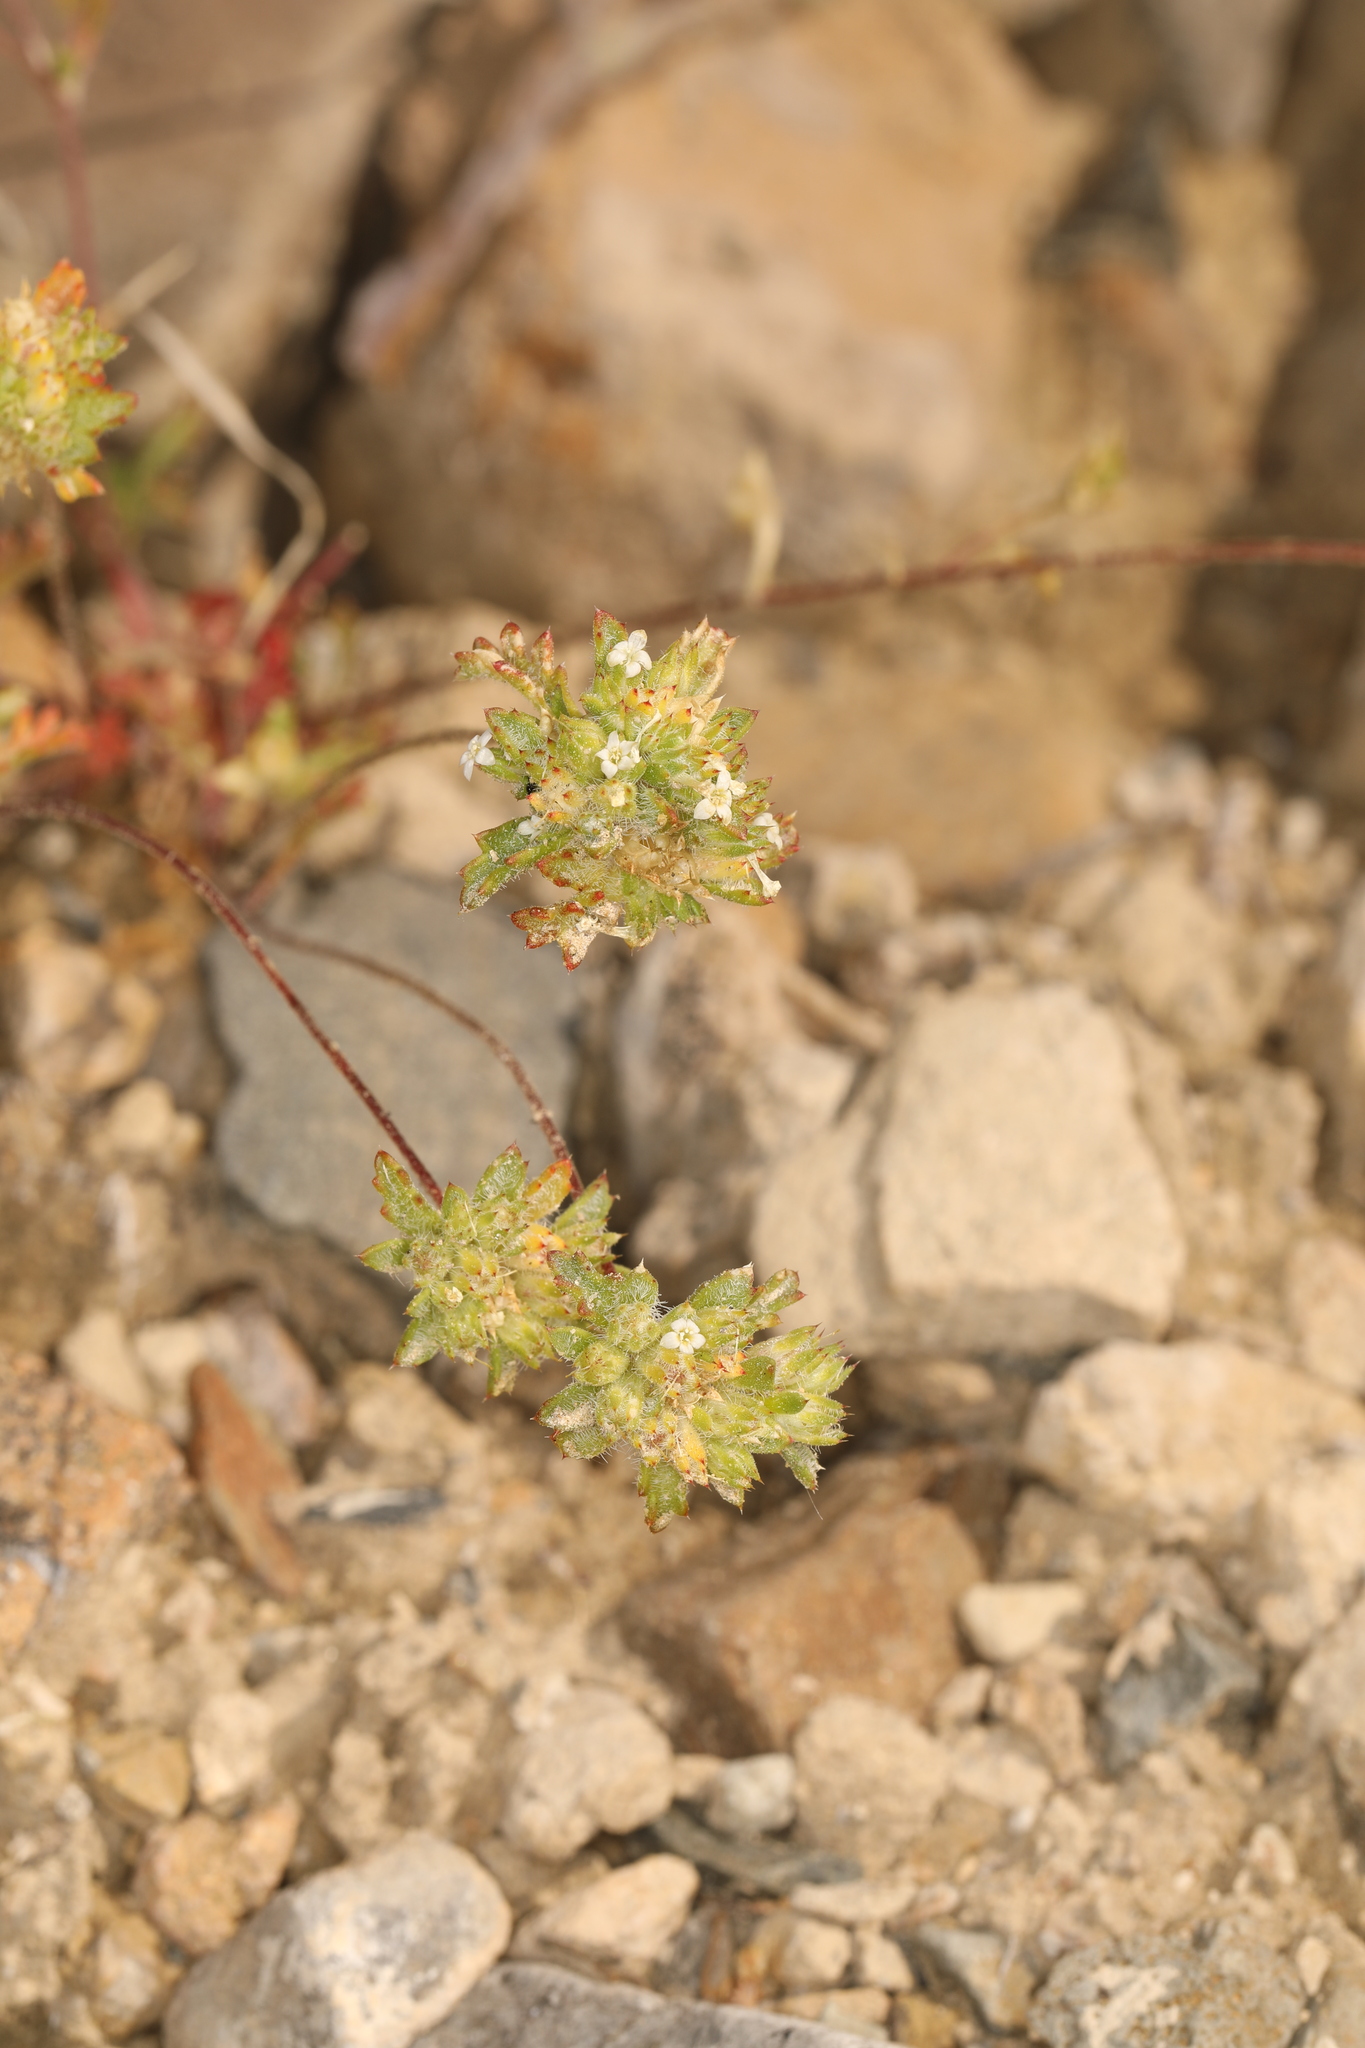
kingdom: Plantae
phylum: Tracheophyta
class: Magnoliopsida
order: Ericales
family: Polemoniaceae
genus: Ipomopsis
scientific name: Ipomopsis polycladon
